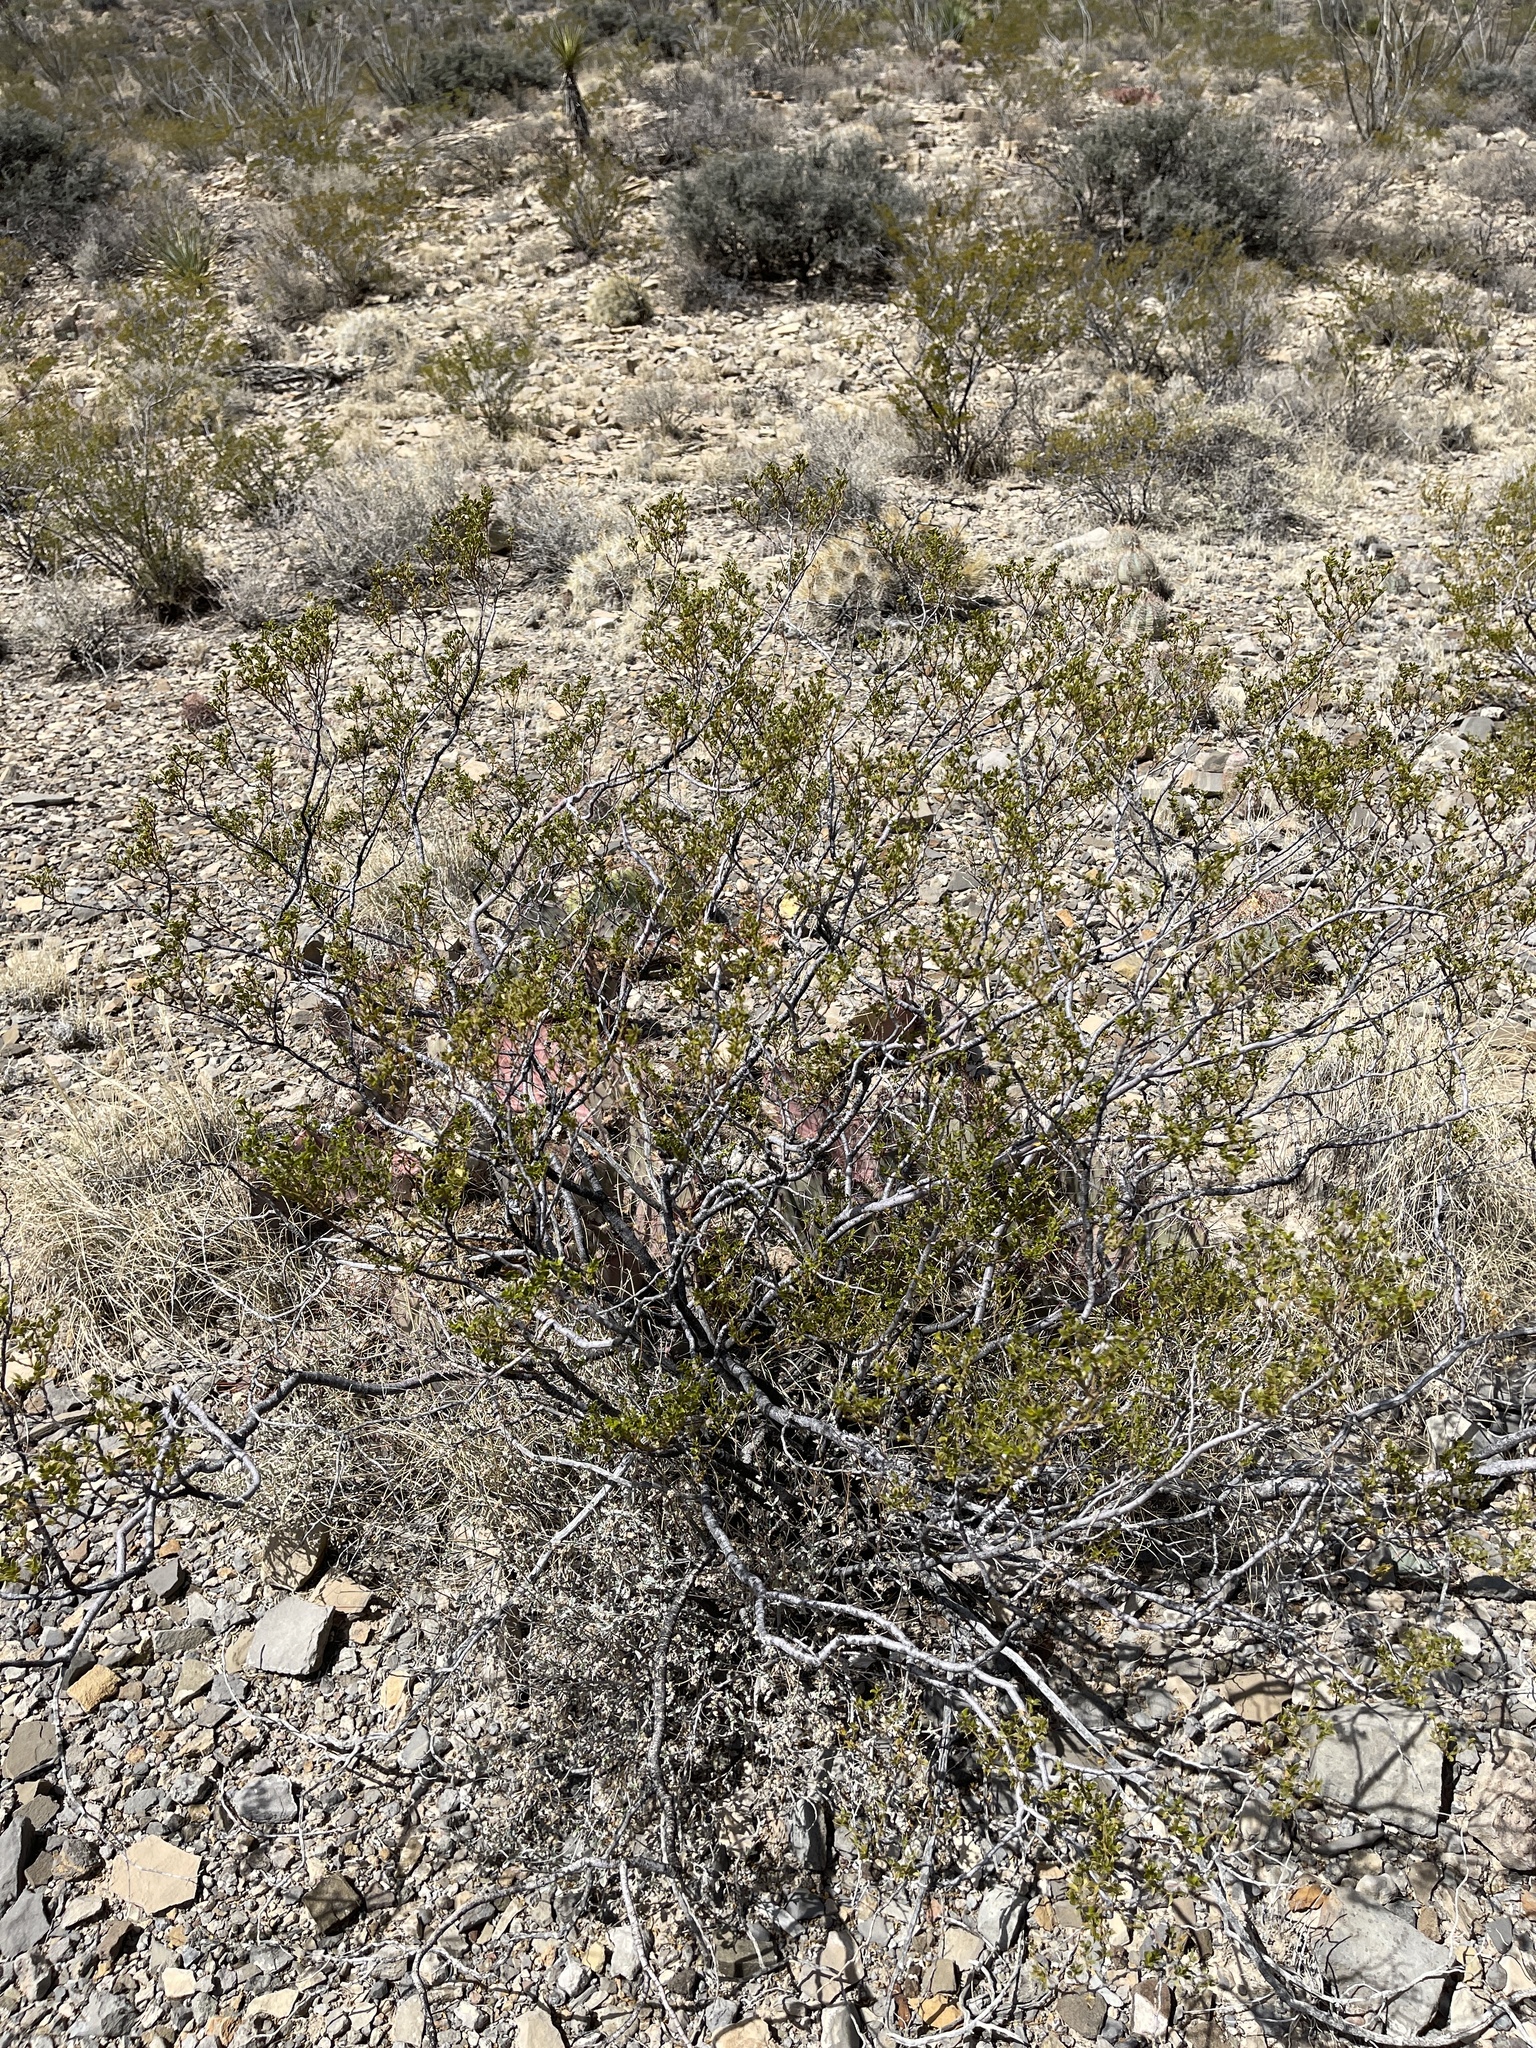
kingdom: Plantae
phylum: Tracheophyta
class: Magnoliopsida
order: Zygophyllales
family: Zygophyllaceae
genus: Larrea
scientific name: Larrea tridentata
